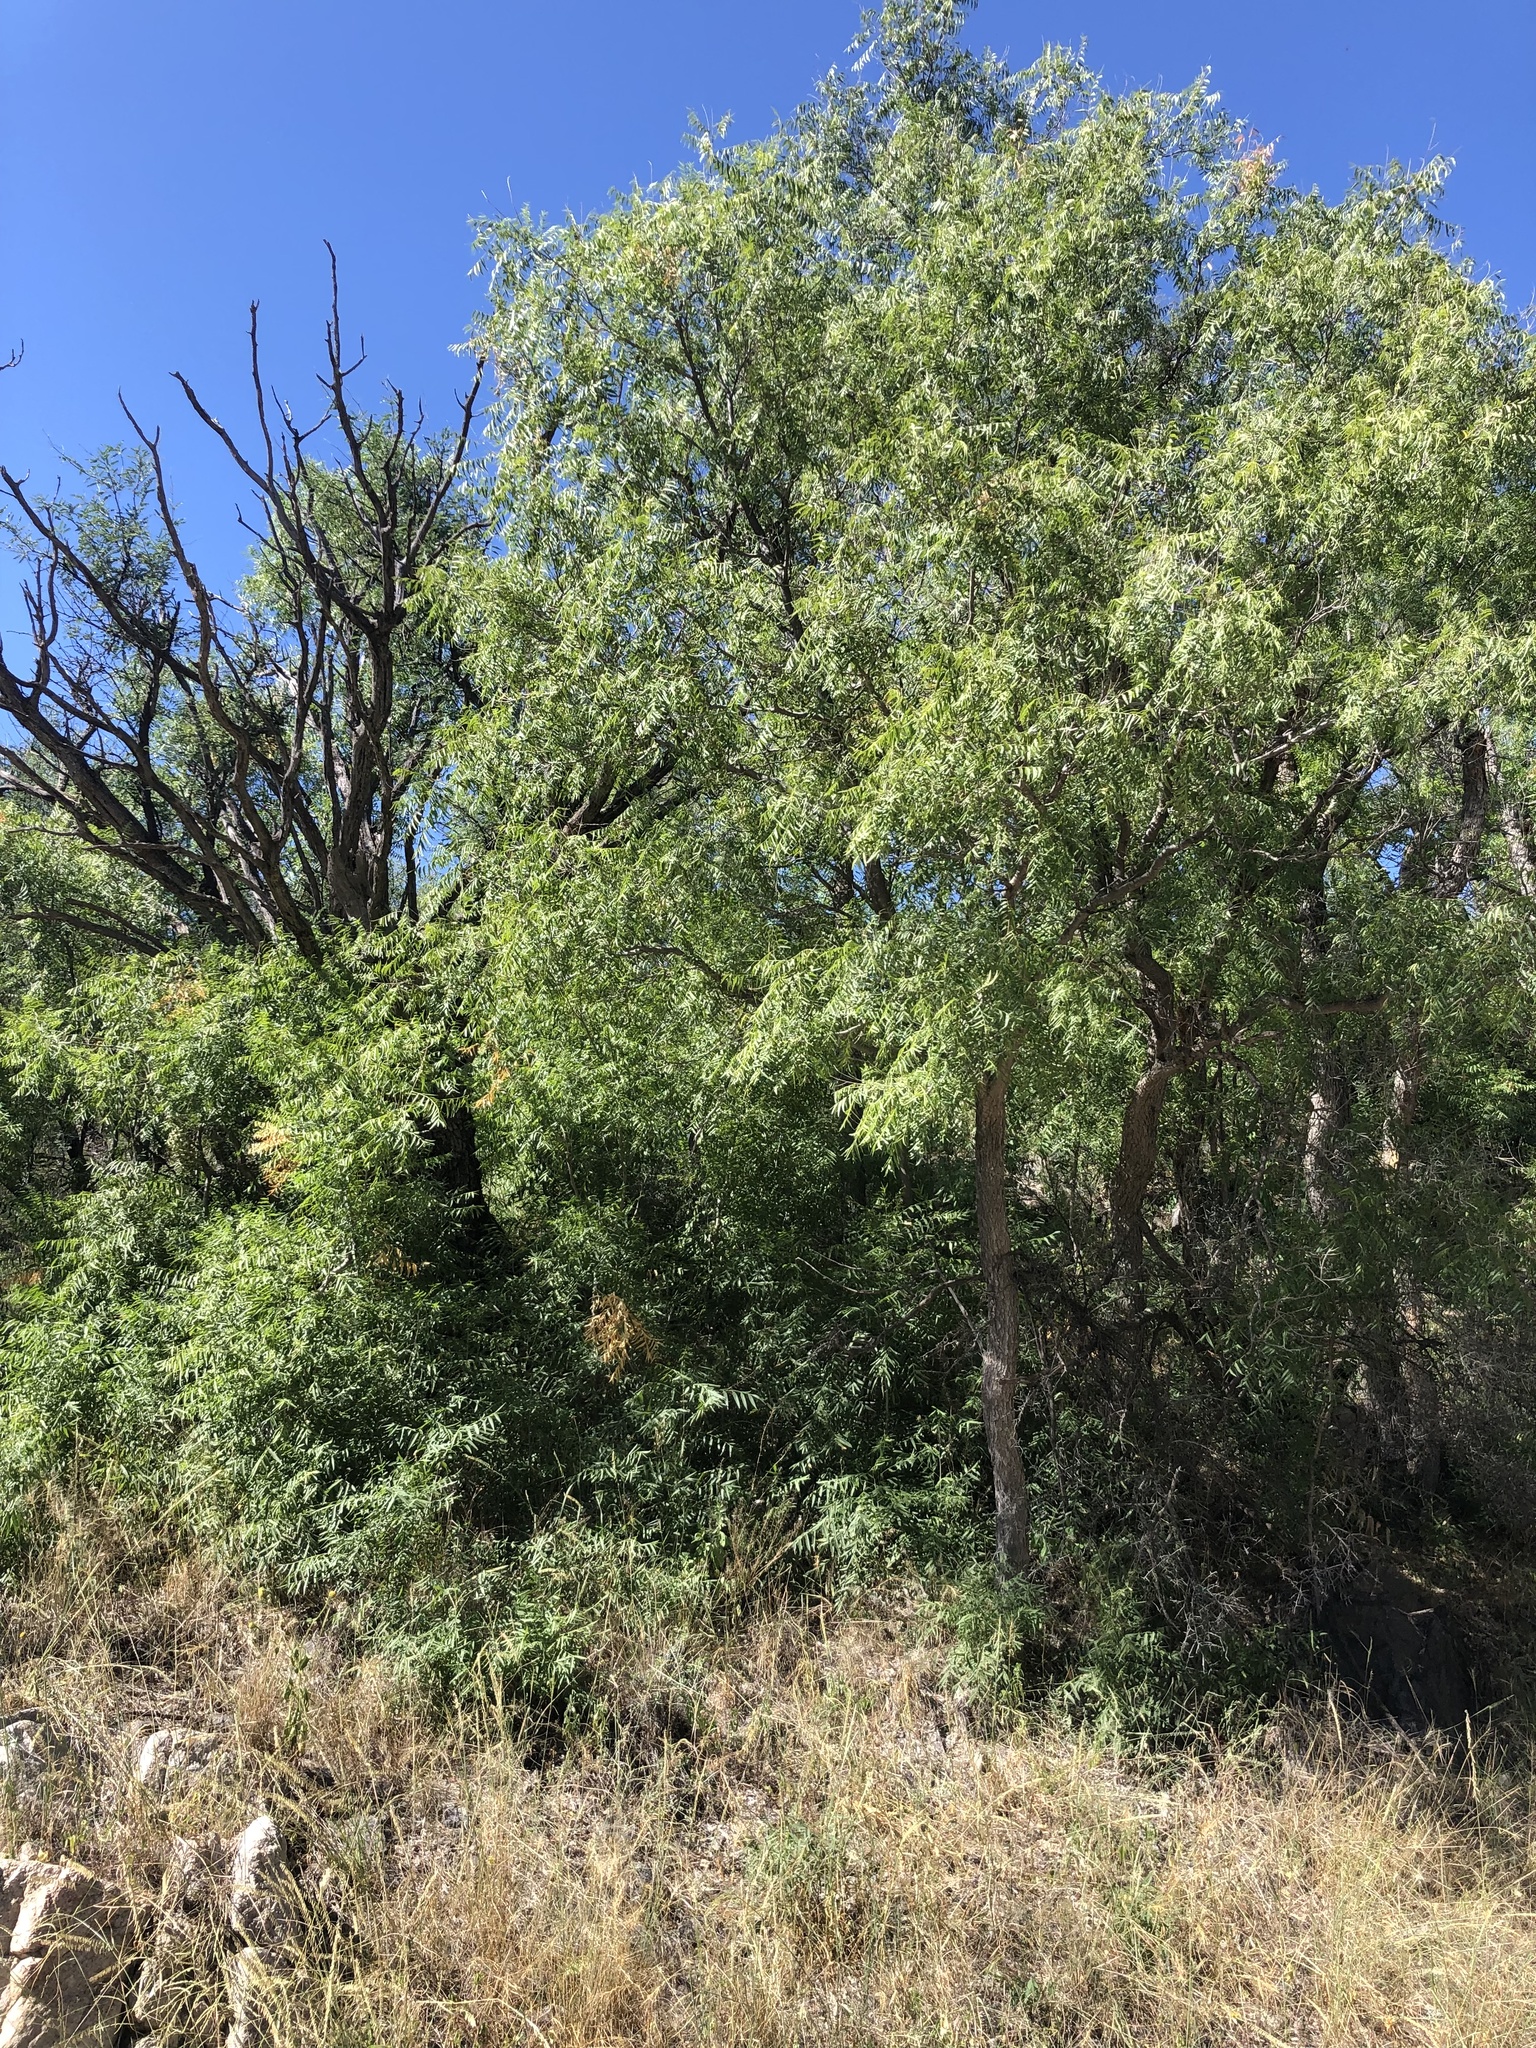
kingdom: Plantae
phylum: Tracheophyta
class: Magnoliopsida
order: Sapindales
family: Sapindaceae
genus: Sapindus
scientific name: Sapindus drummondii
